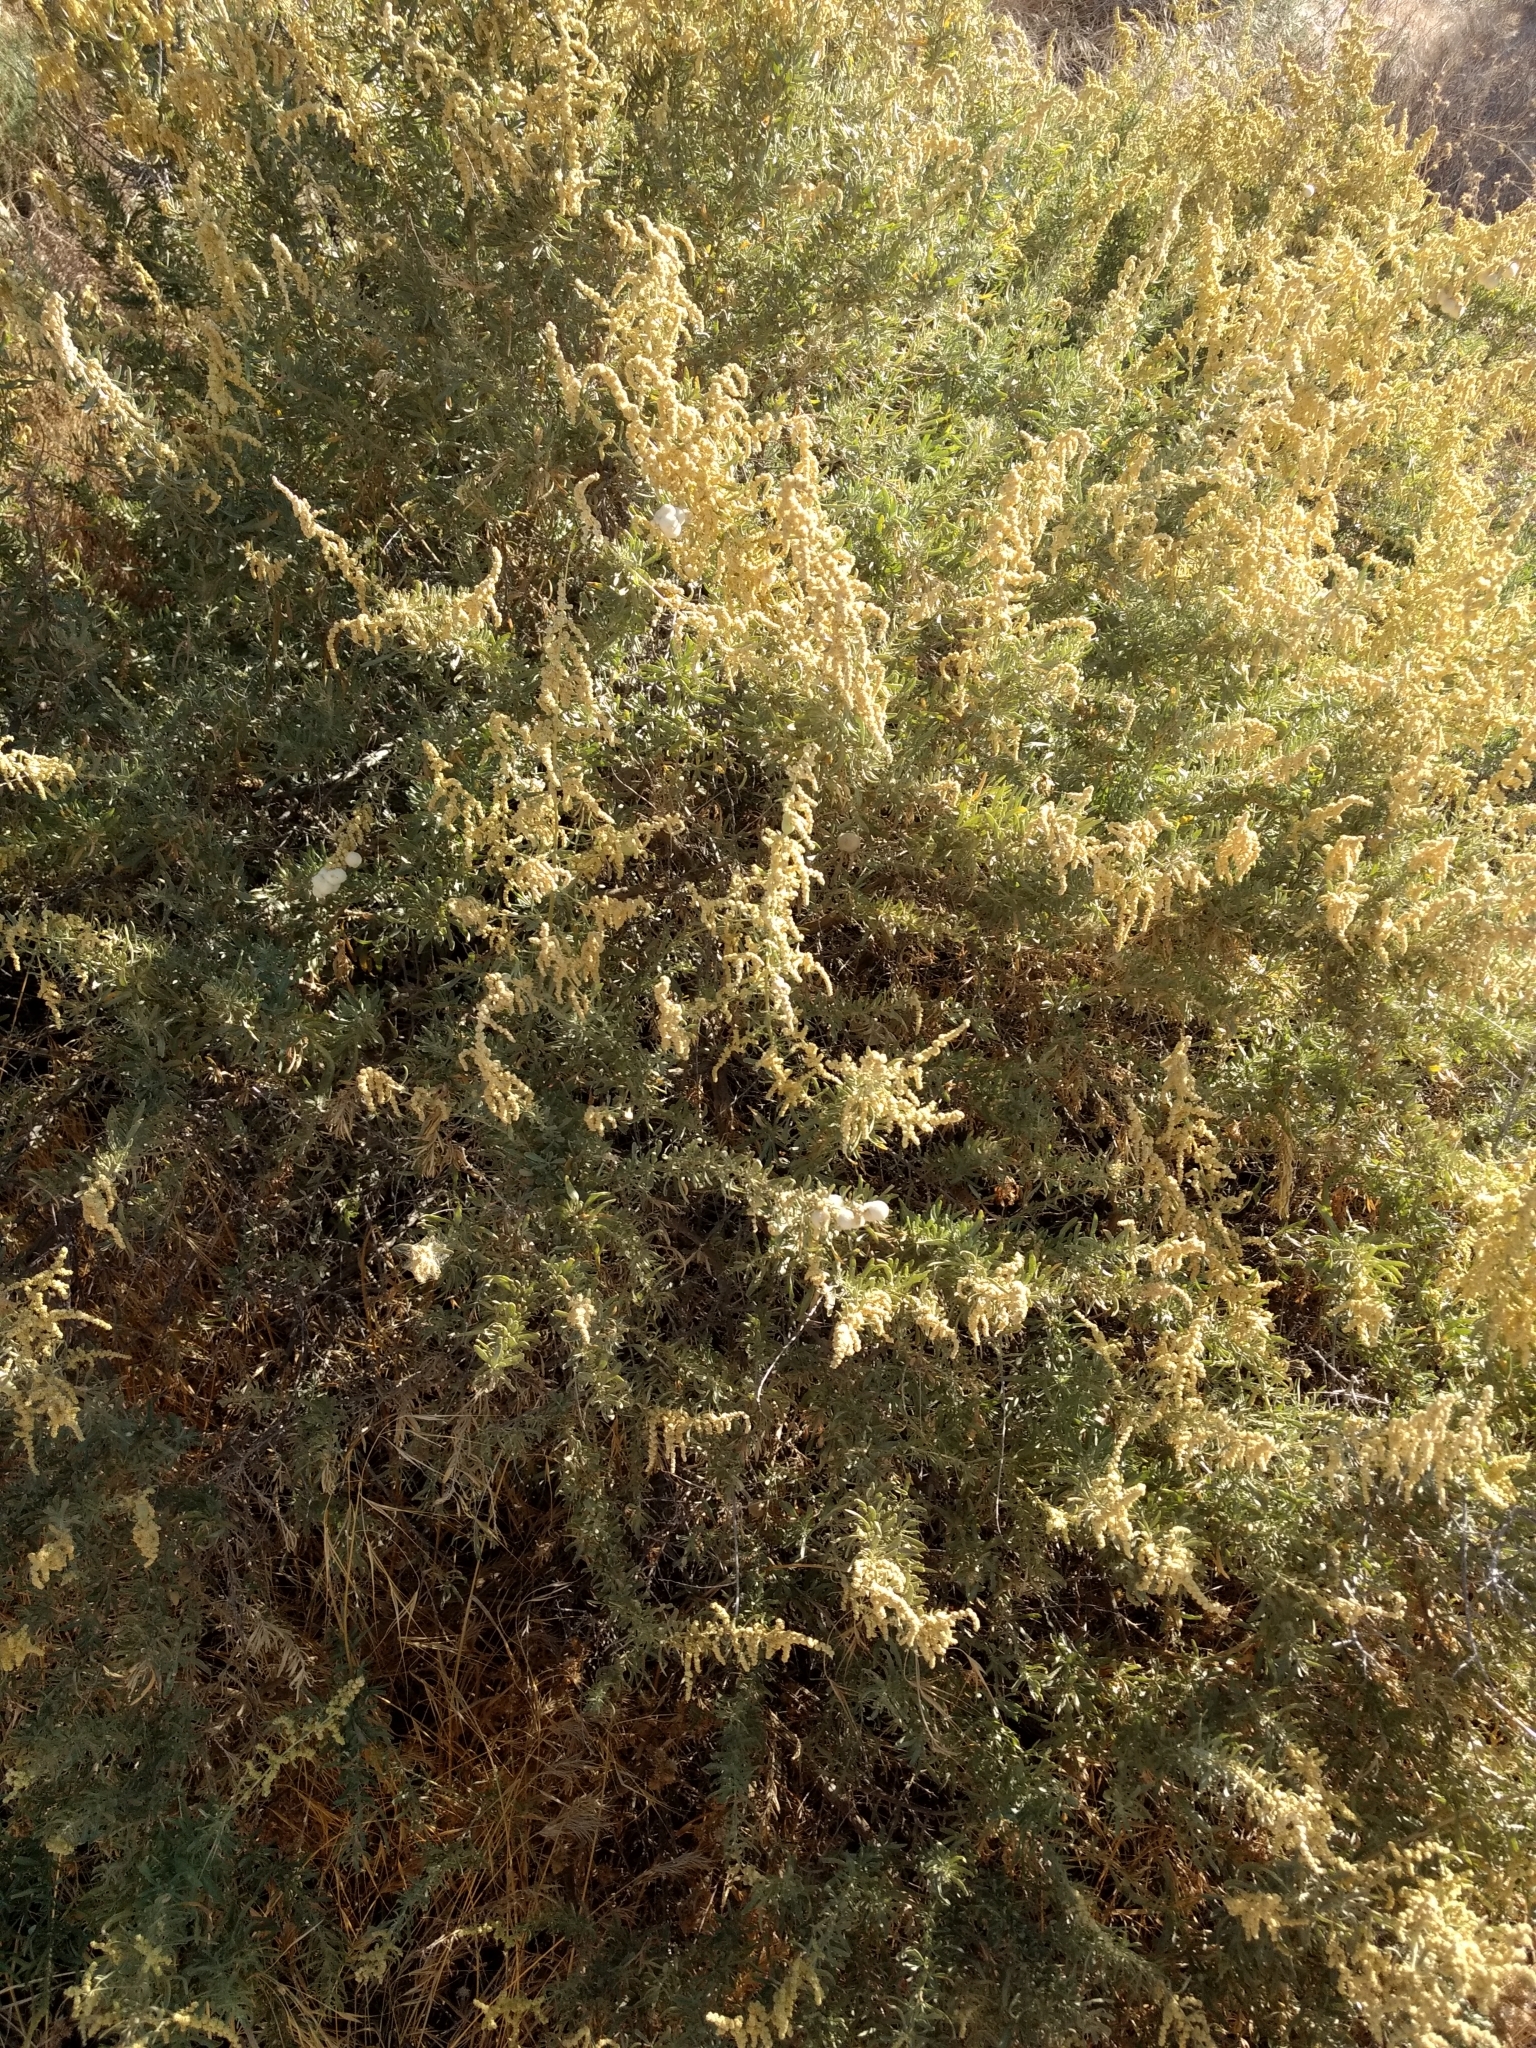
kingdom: Plantae
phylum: Tracheophyta
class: Magnoliopsida
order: Caryophyllales
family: Amaranthaceae
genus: Atriplex
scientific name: Atriplex canescens
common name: Four-wing saltbush
